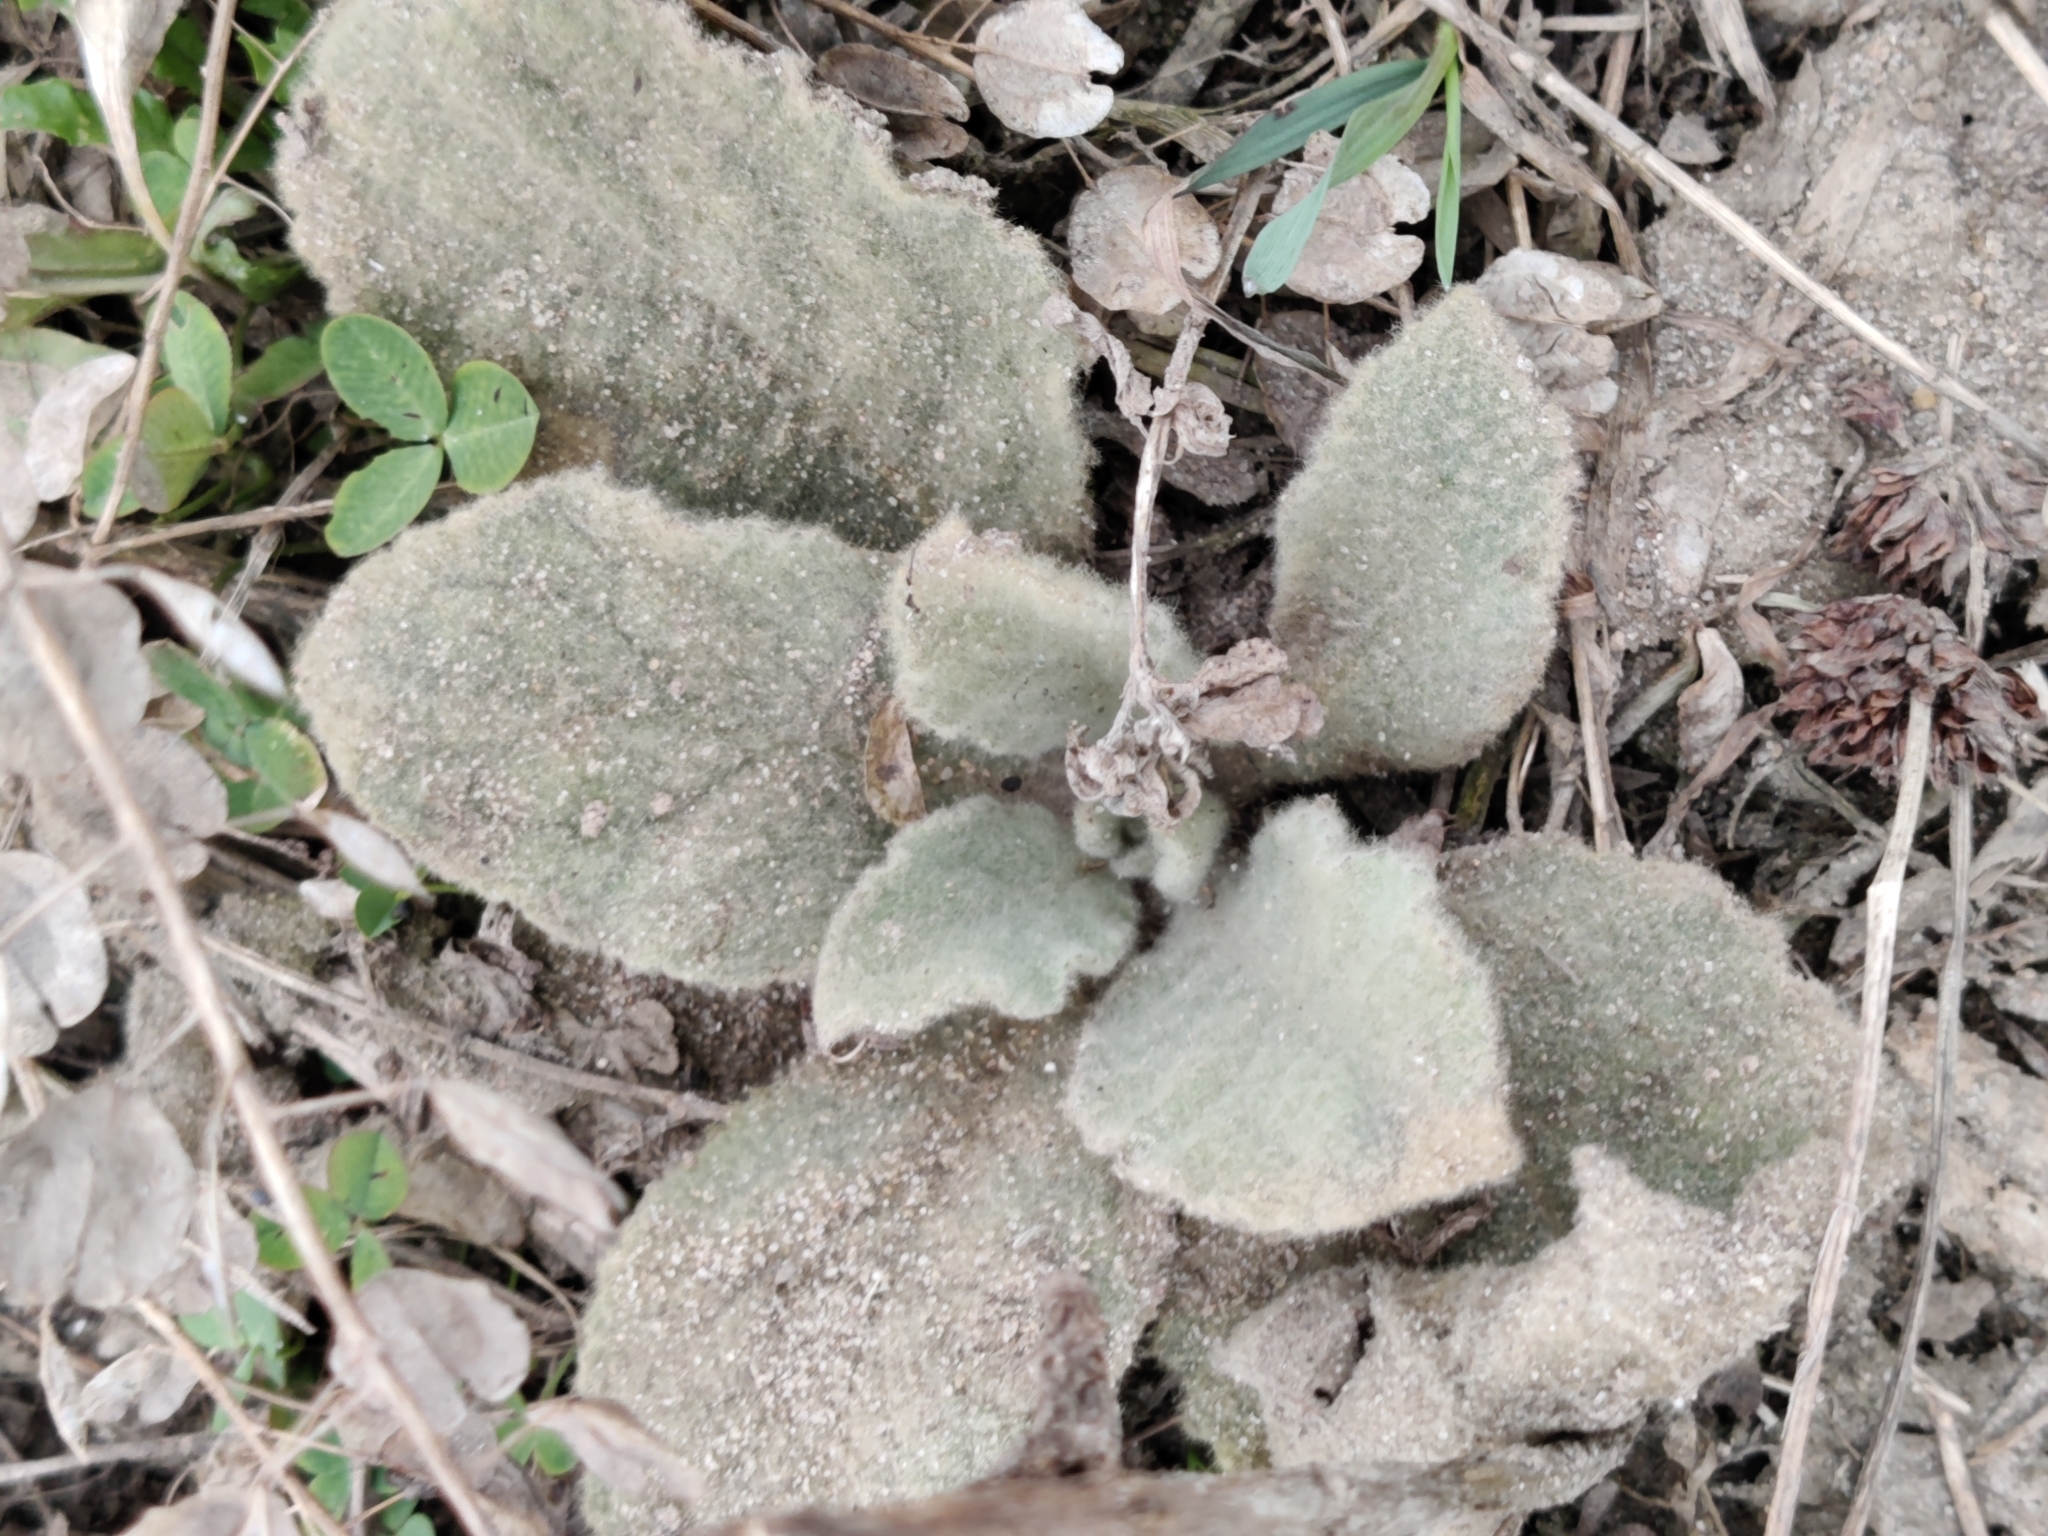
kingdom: Plantae
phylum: Tracheophyta
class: Magnoliopsida
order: Lamiales
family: Scrophulariaceae
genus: Verbascum
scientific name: Verbascum thapsus
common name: Common mullein
